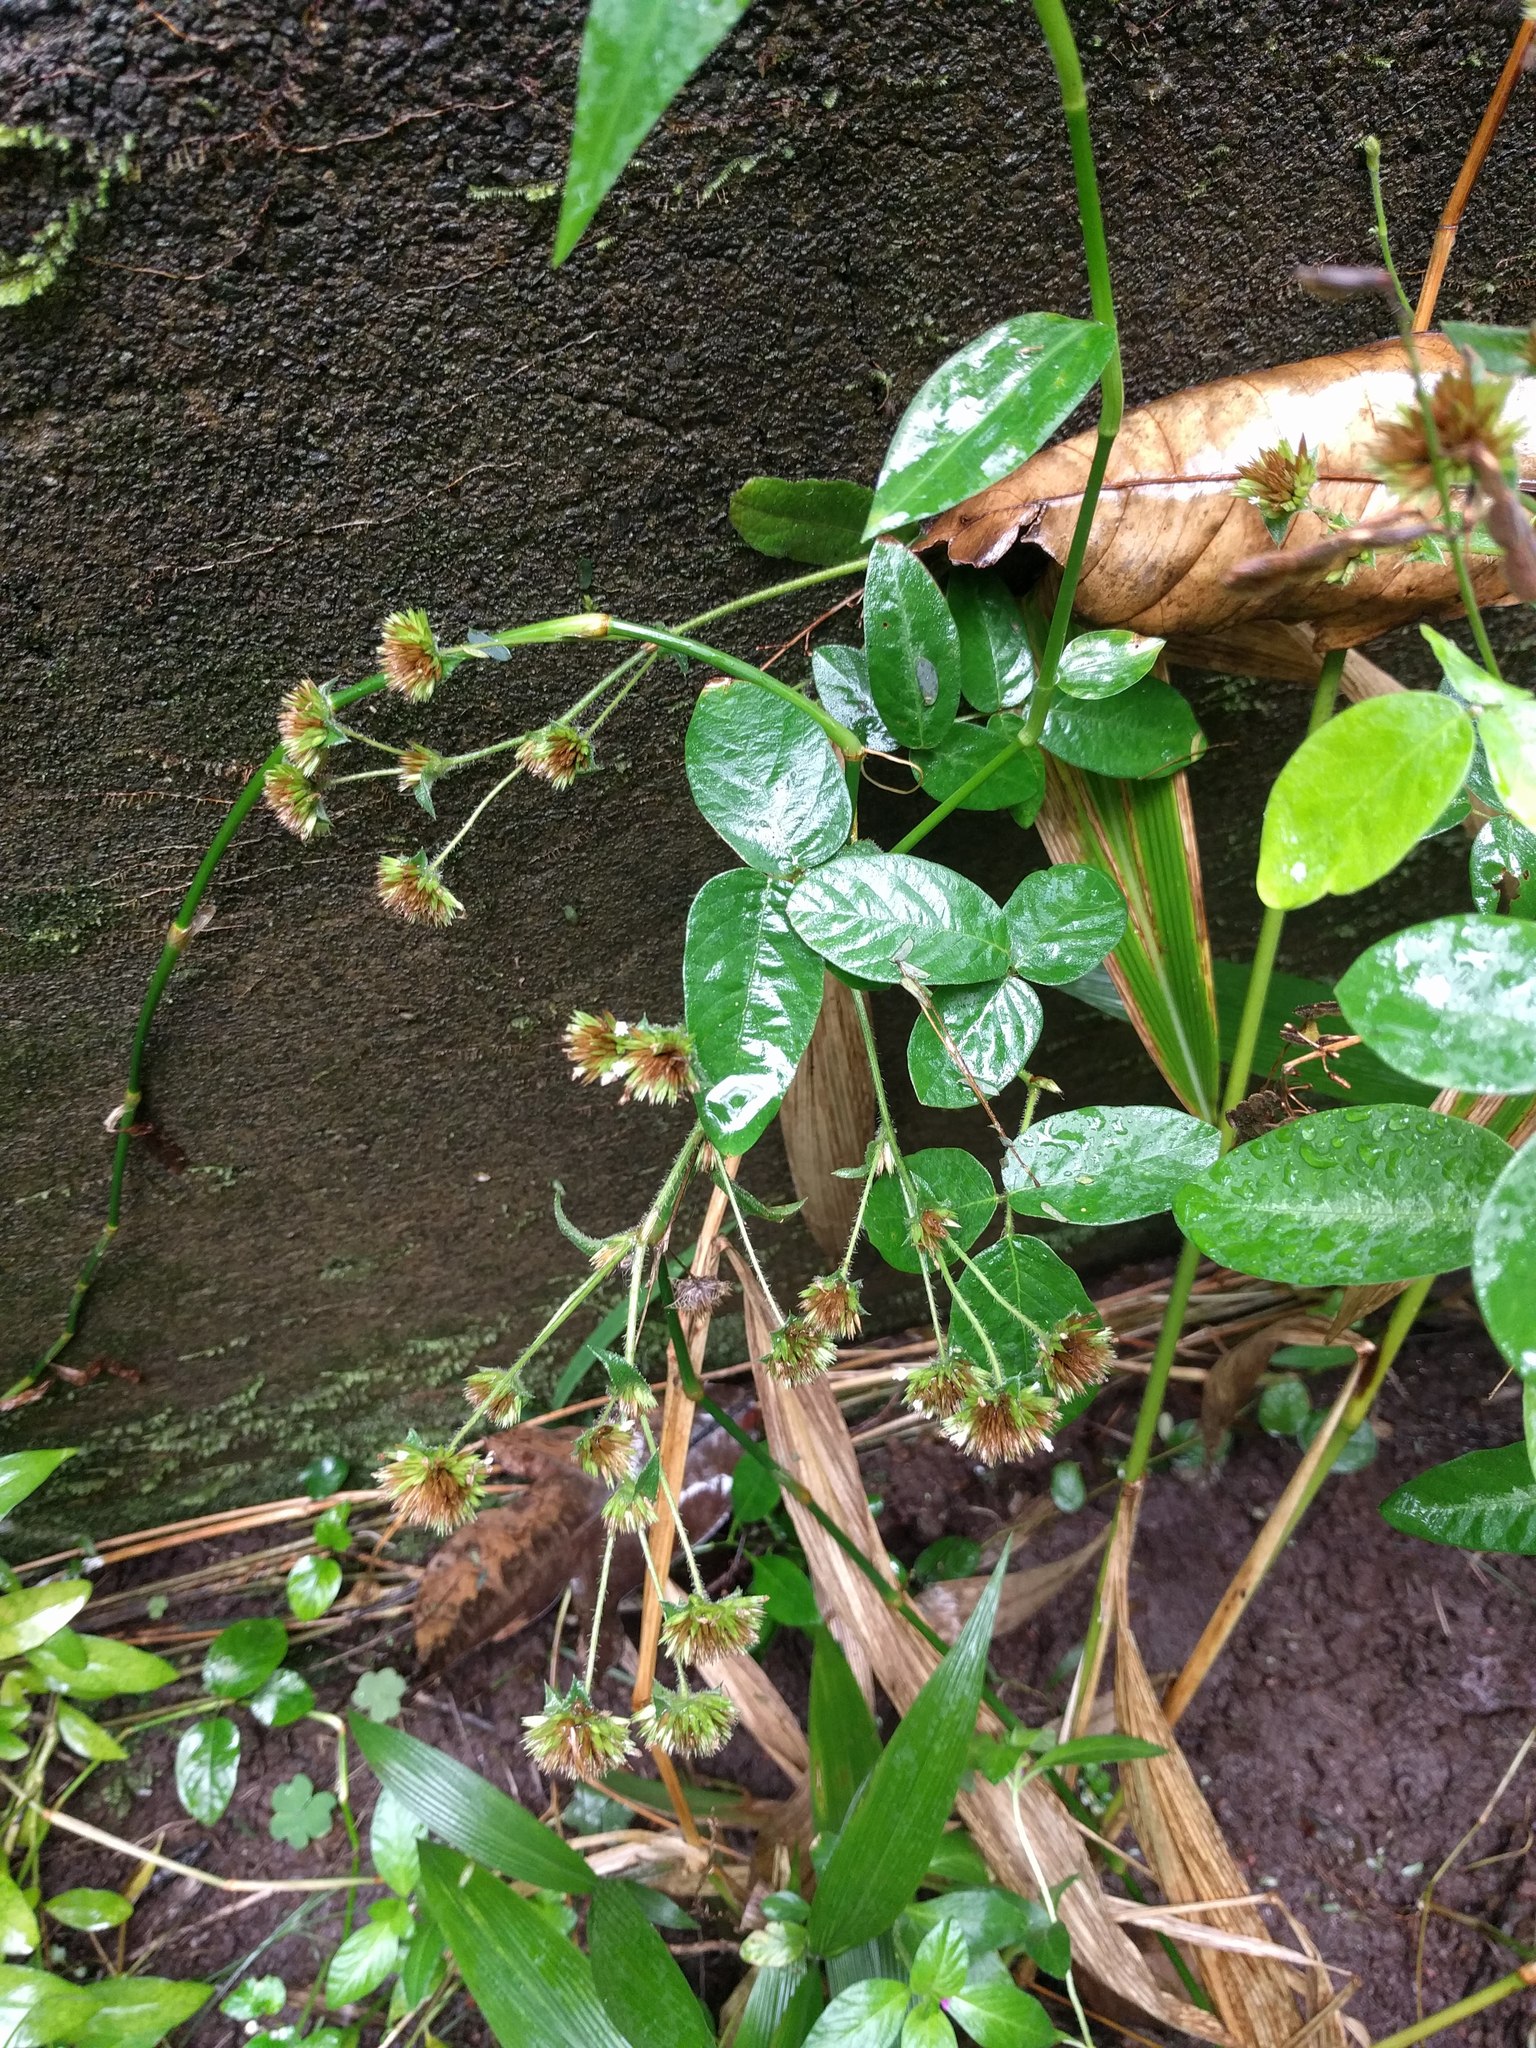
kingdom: Plantae
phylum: Tracheophyta
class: Magnoliopsida
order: Asterales
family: Asteraceae
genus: Elephantopus
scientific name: Elephantopus mollis
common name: Soft elephantsfoot
